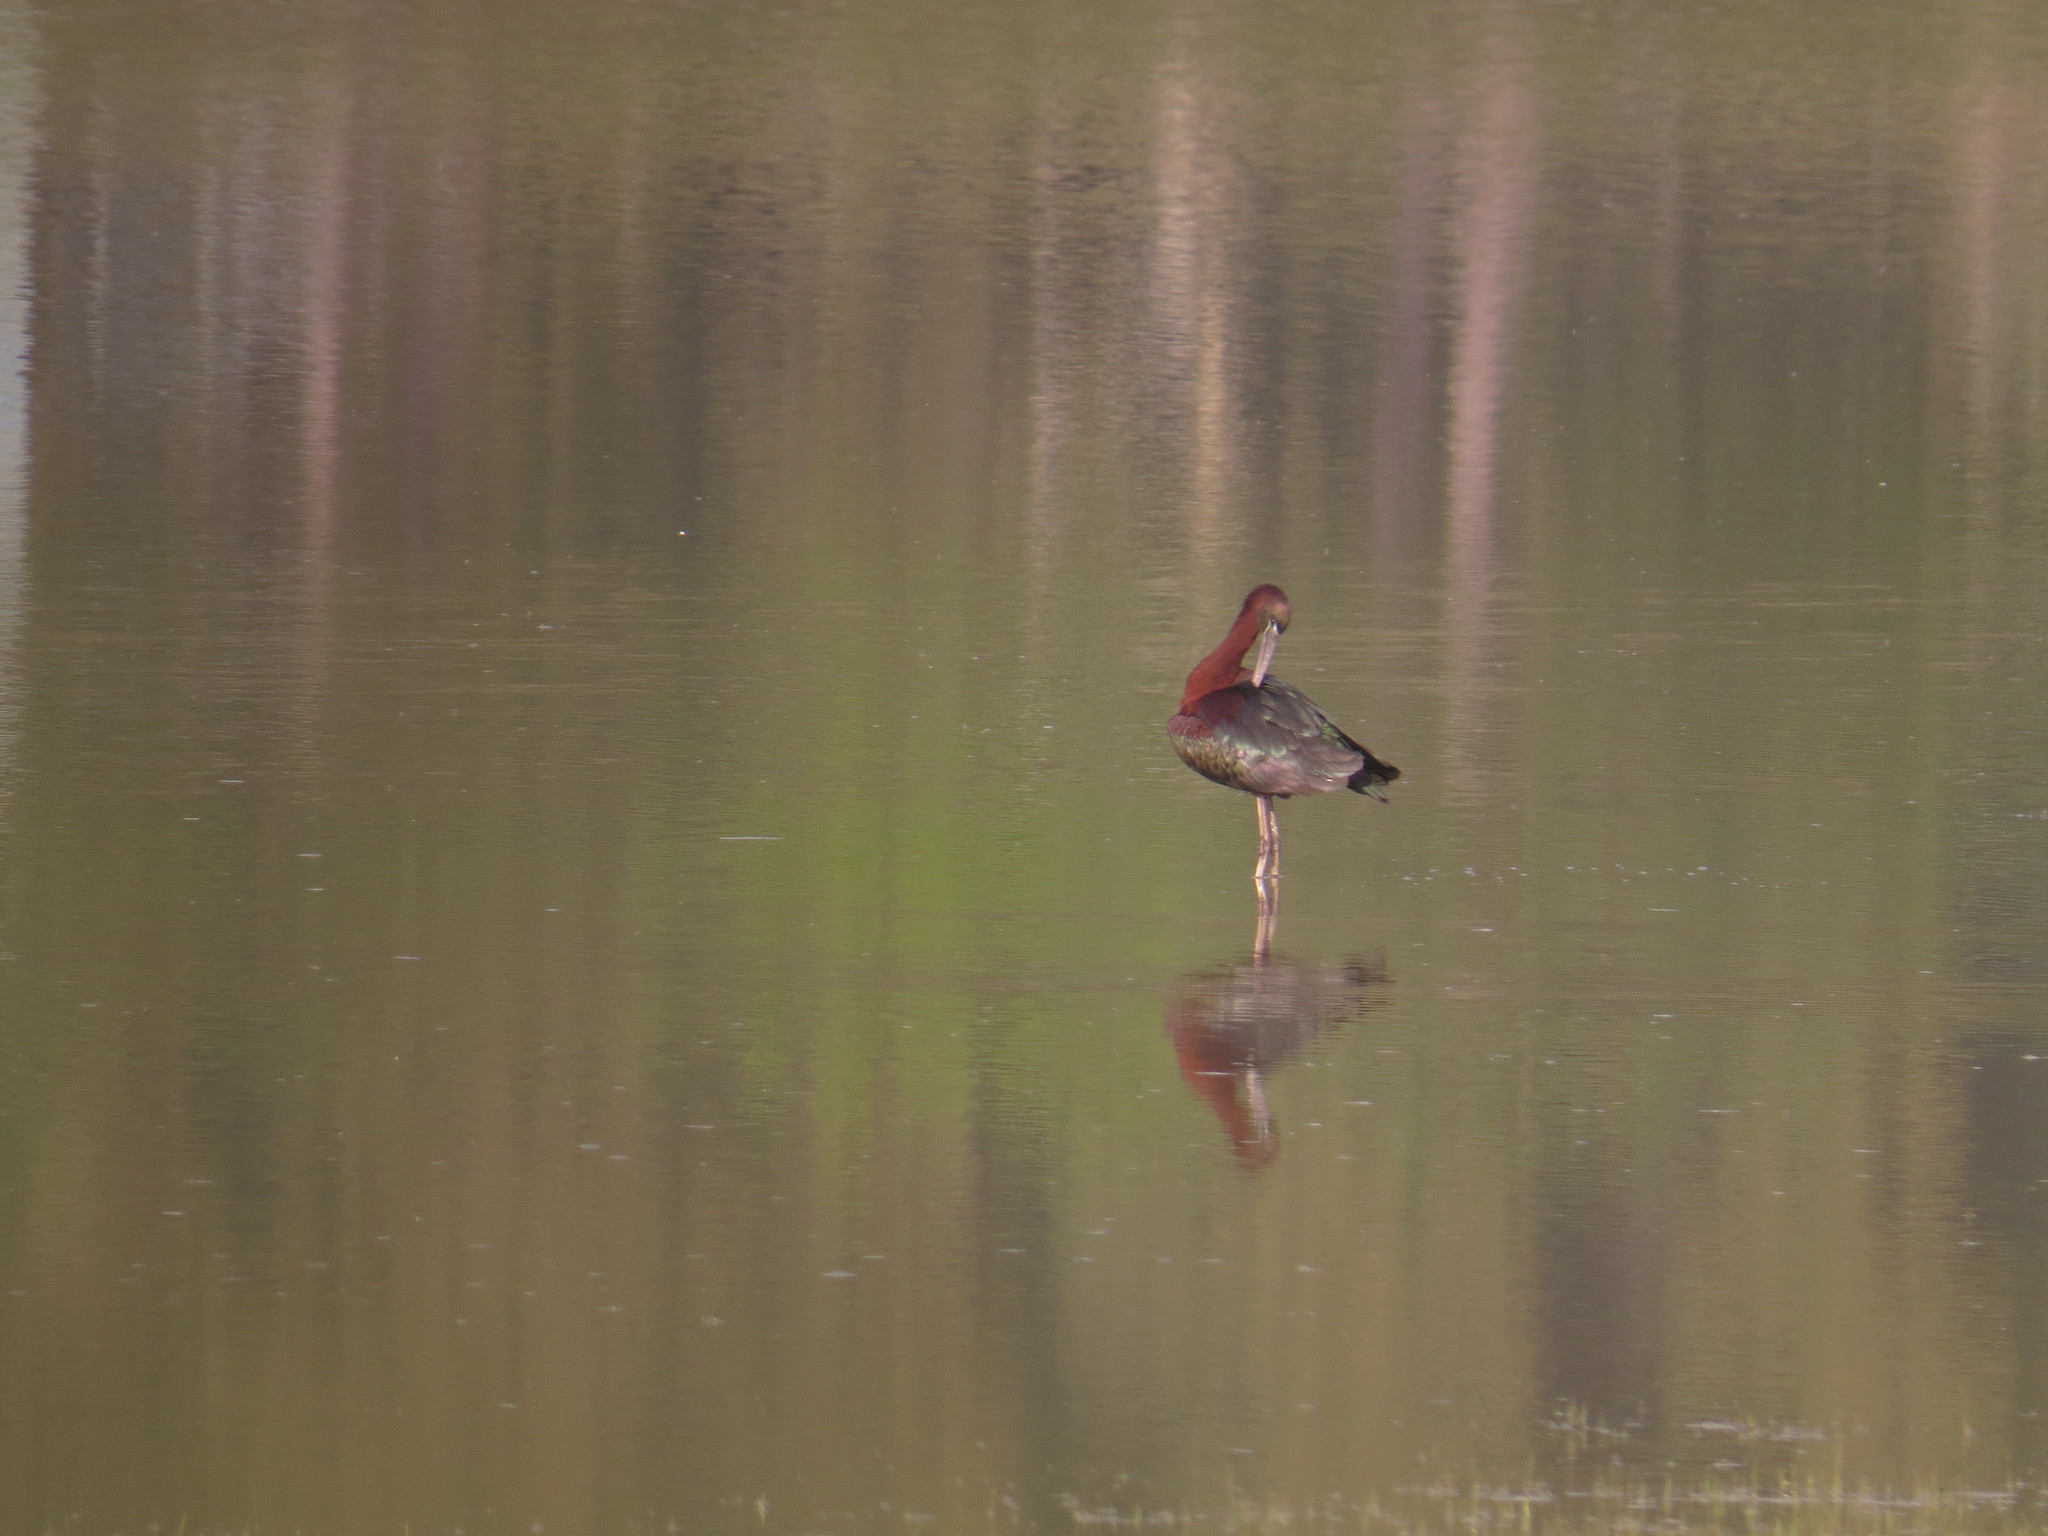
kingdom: Animalia
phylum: Chordata
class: Aves
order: Pelecaniformes
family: Threskiornithidae
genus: Plegadis
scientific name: Plegadis falcinellus
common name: Glossy ibis
